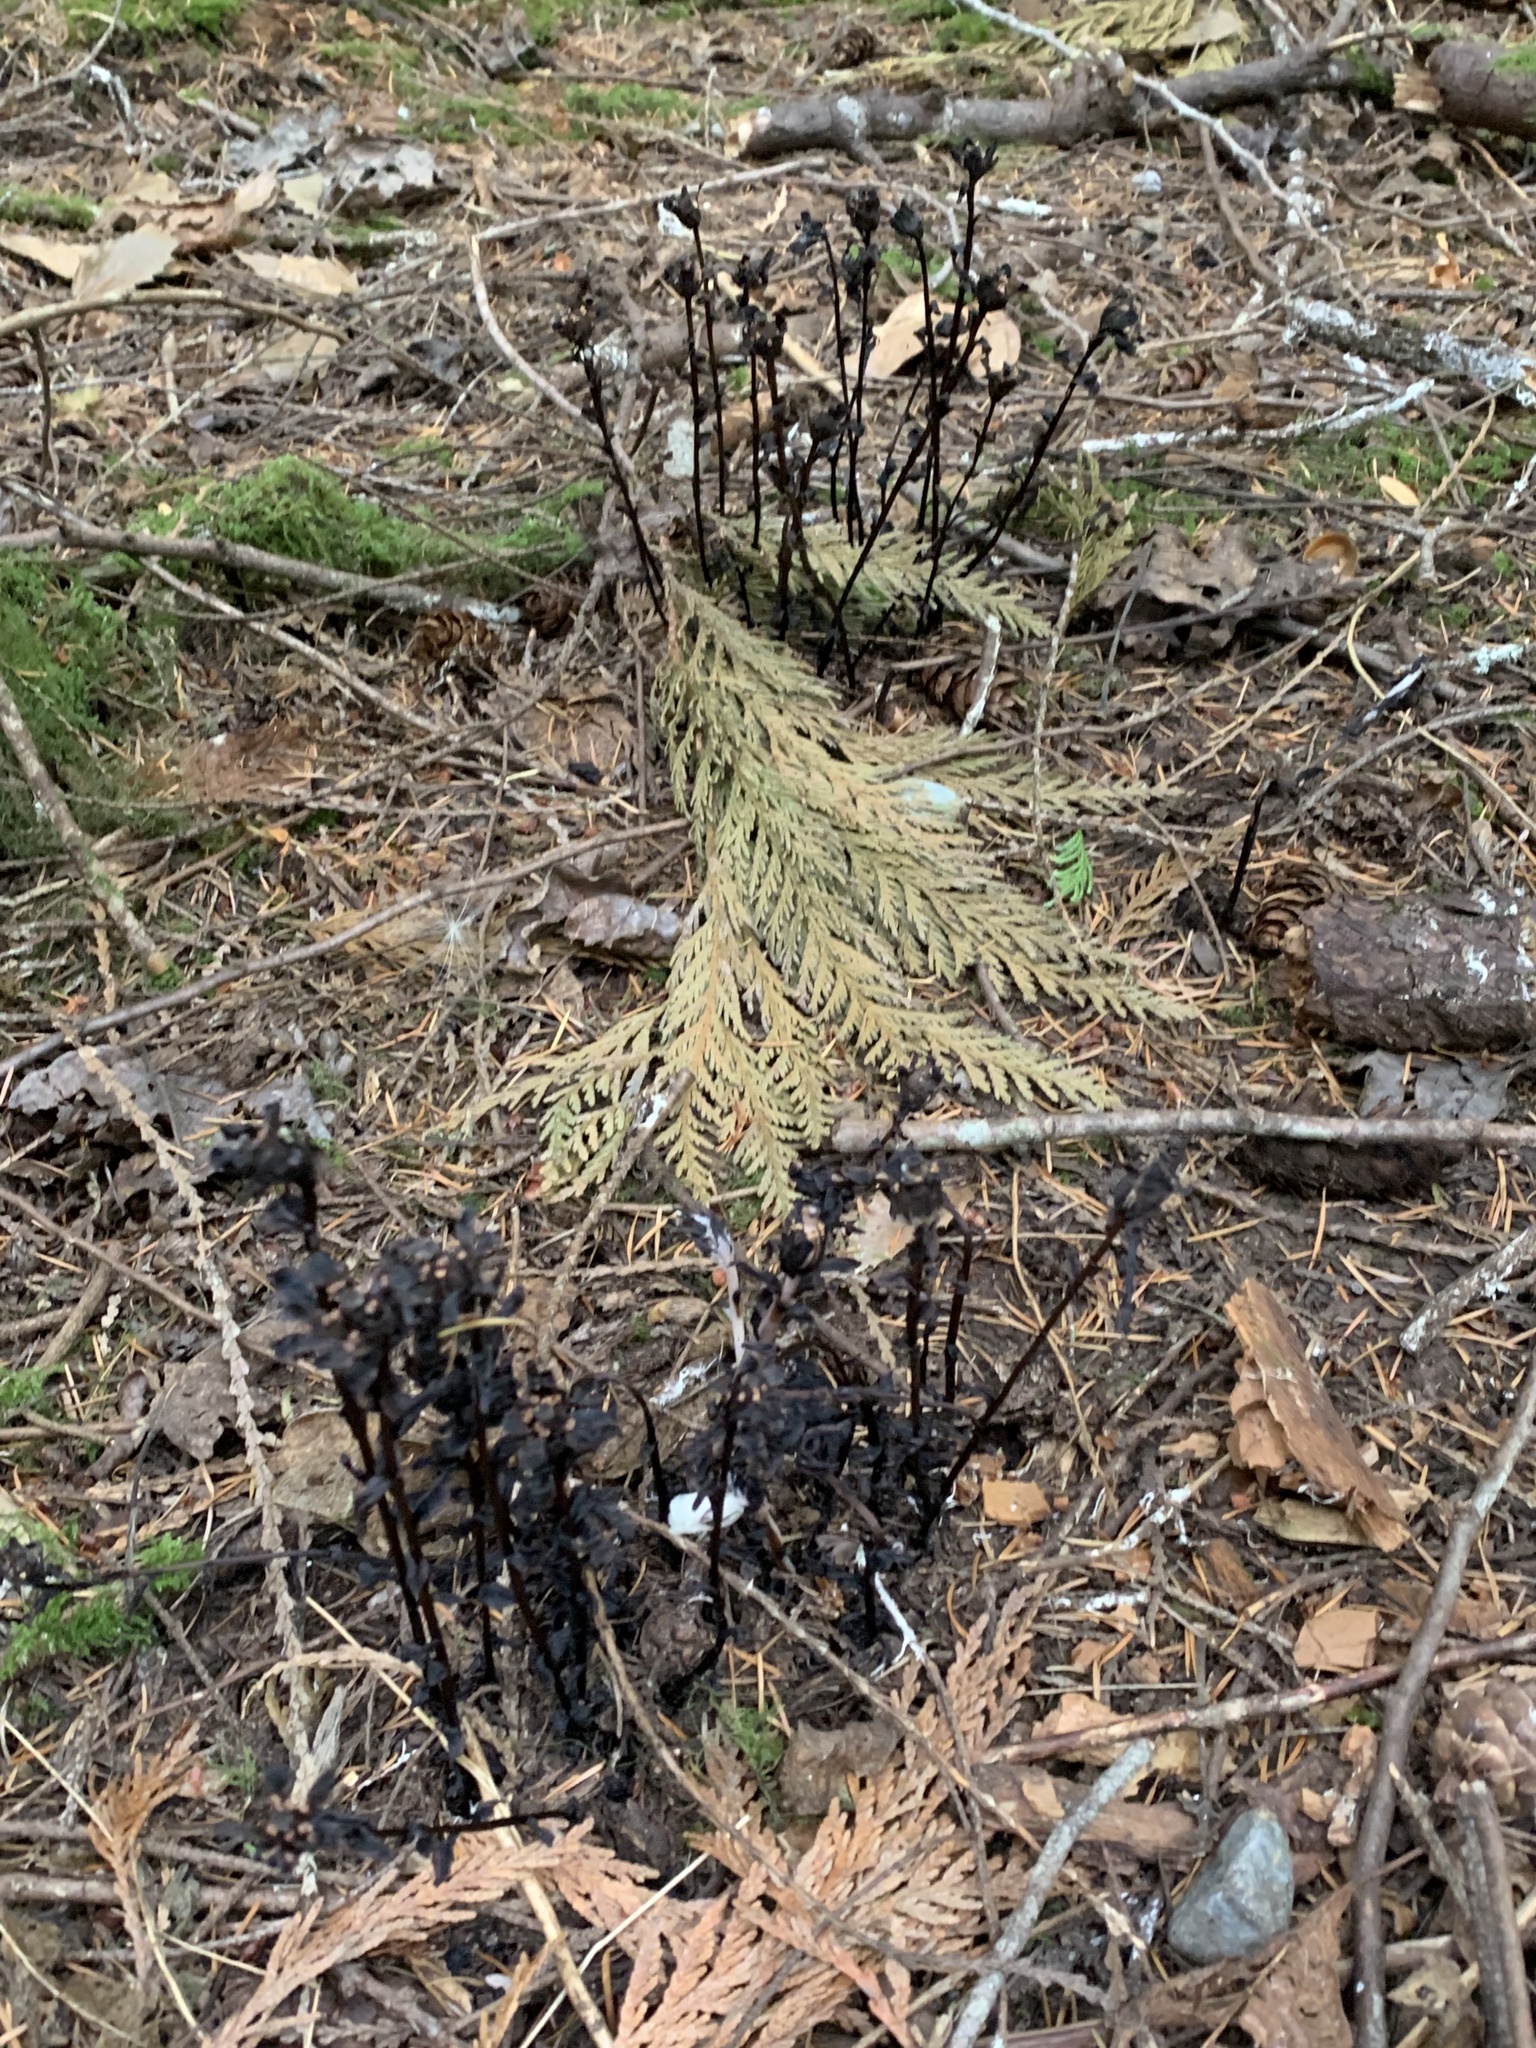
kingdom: Plantae
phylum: Tracheophyta
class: Magnoliopsida
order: Ericales
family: Ericaceae
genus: Monotropa
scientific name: Monotropa uniflora
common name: Convulsion root
